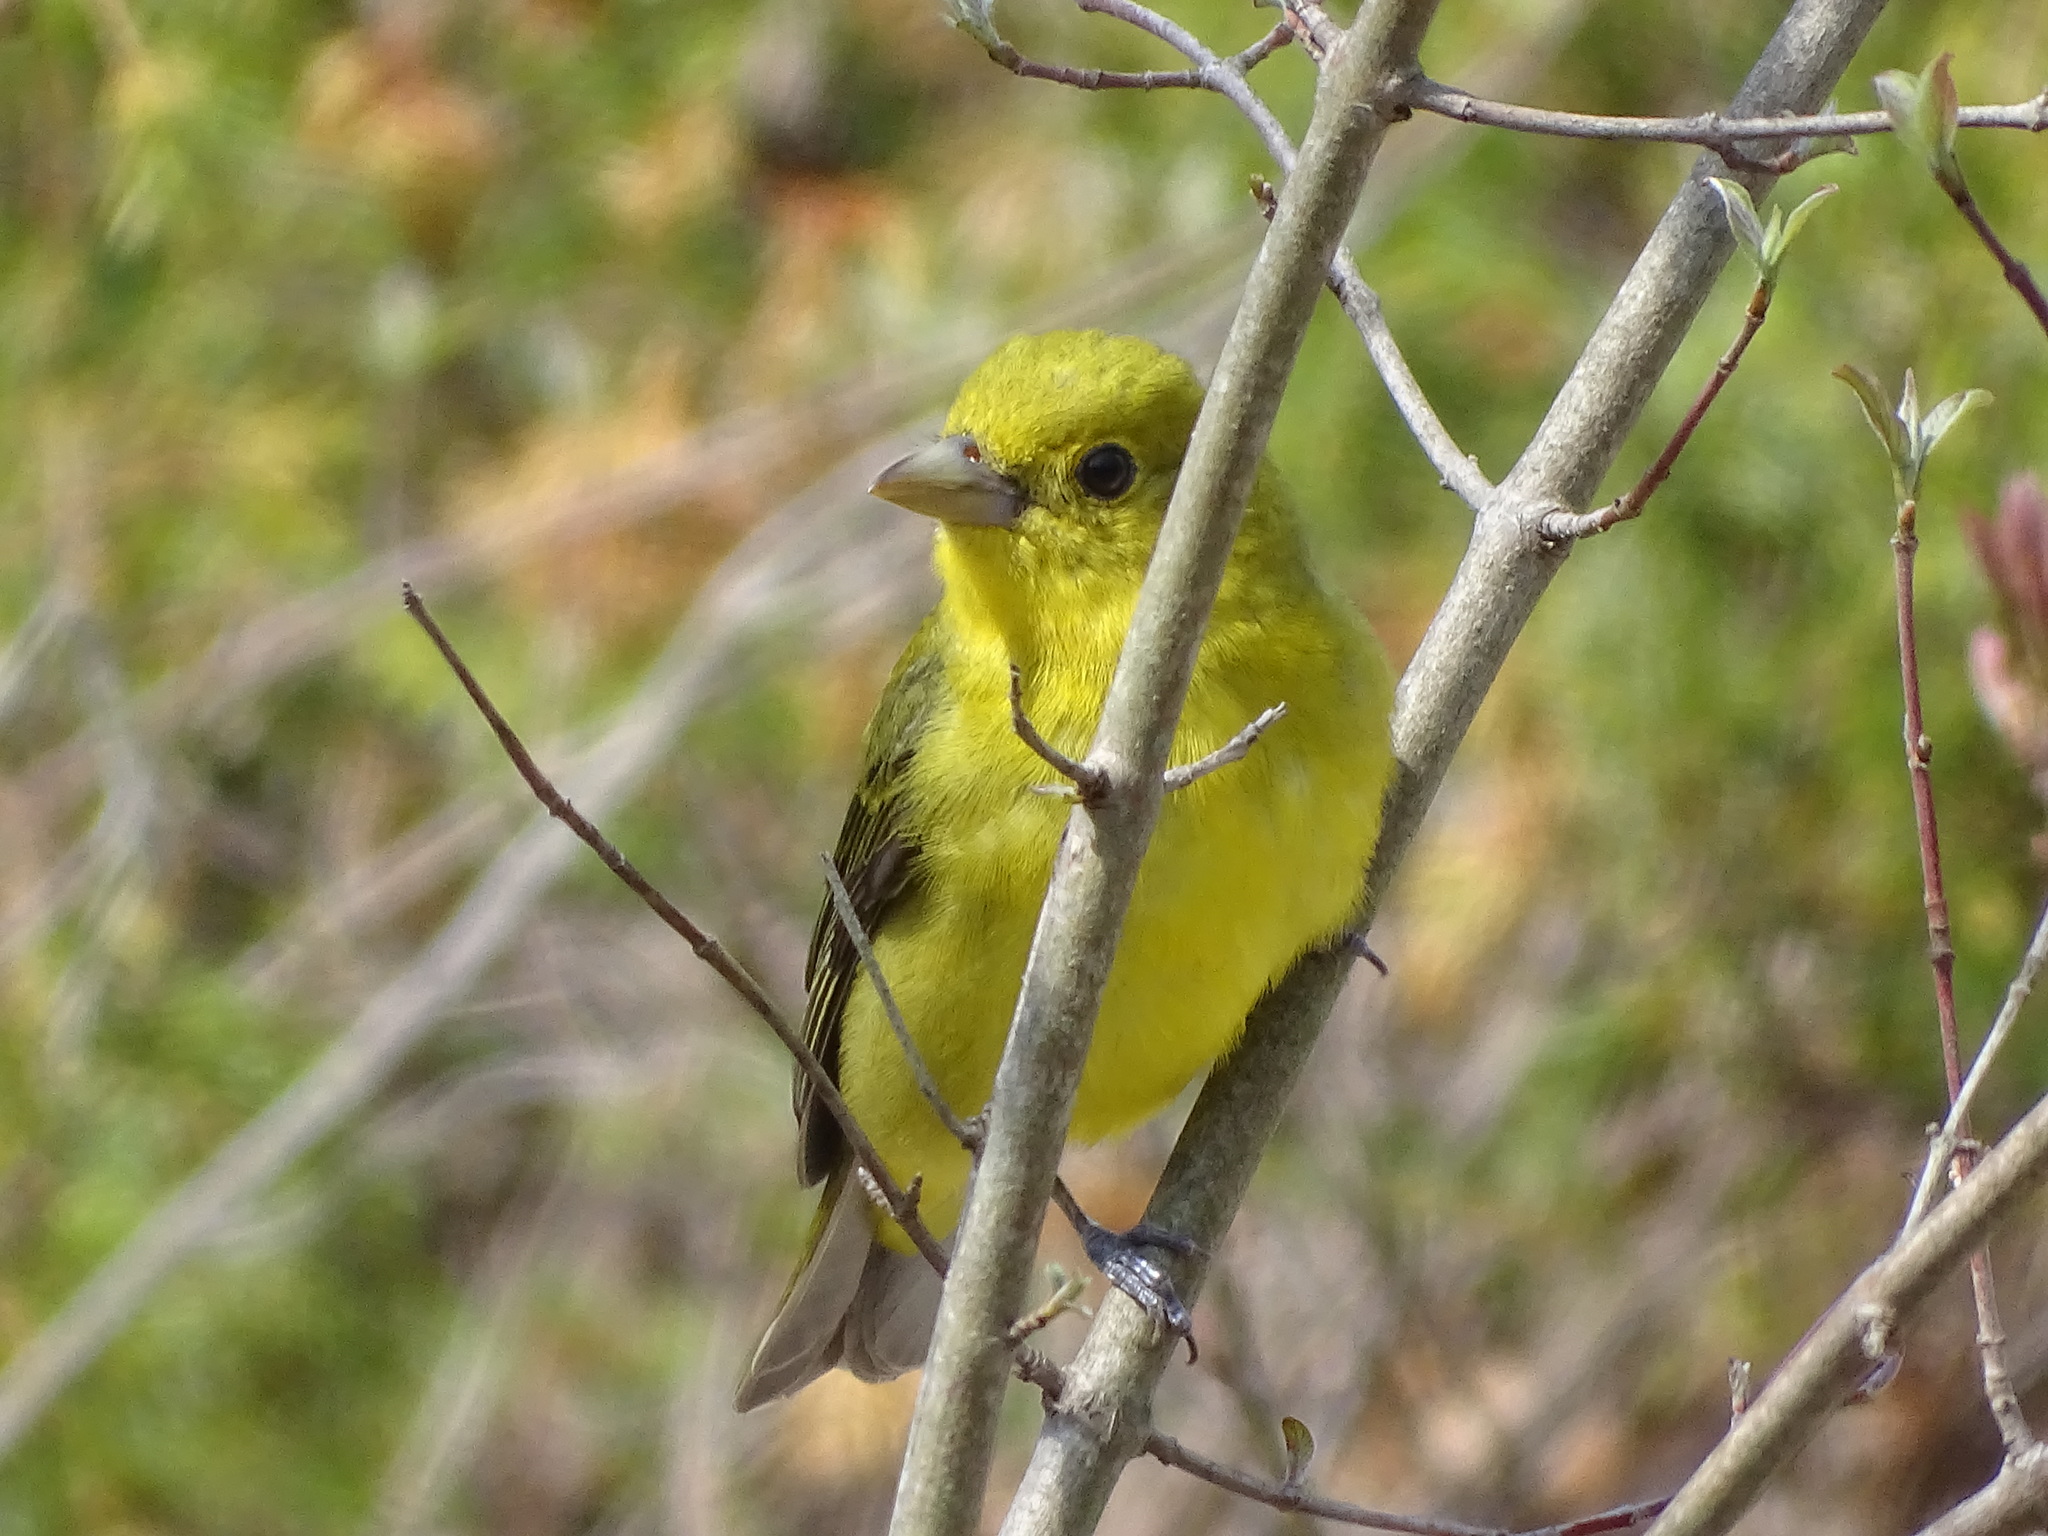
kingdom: Animalia
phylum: Chordata
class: Aves
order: Passeriformes
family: Cardinalidae
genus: Piranga
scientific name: Piranga olivacea
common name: Scarlet tanager
